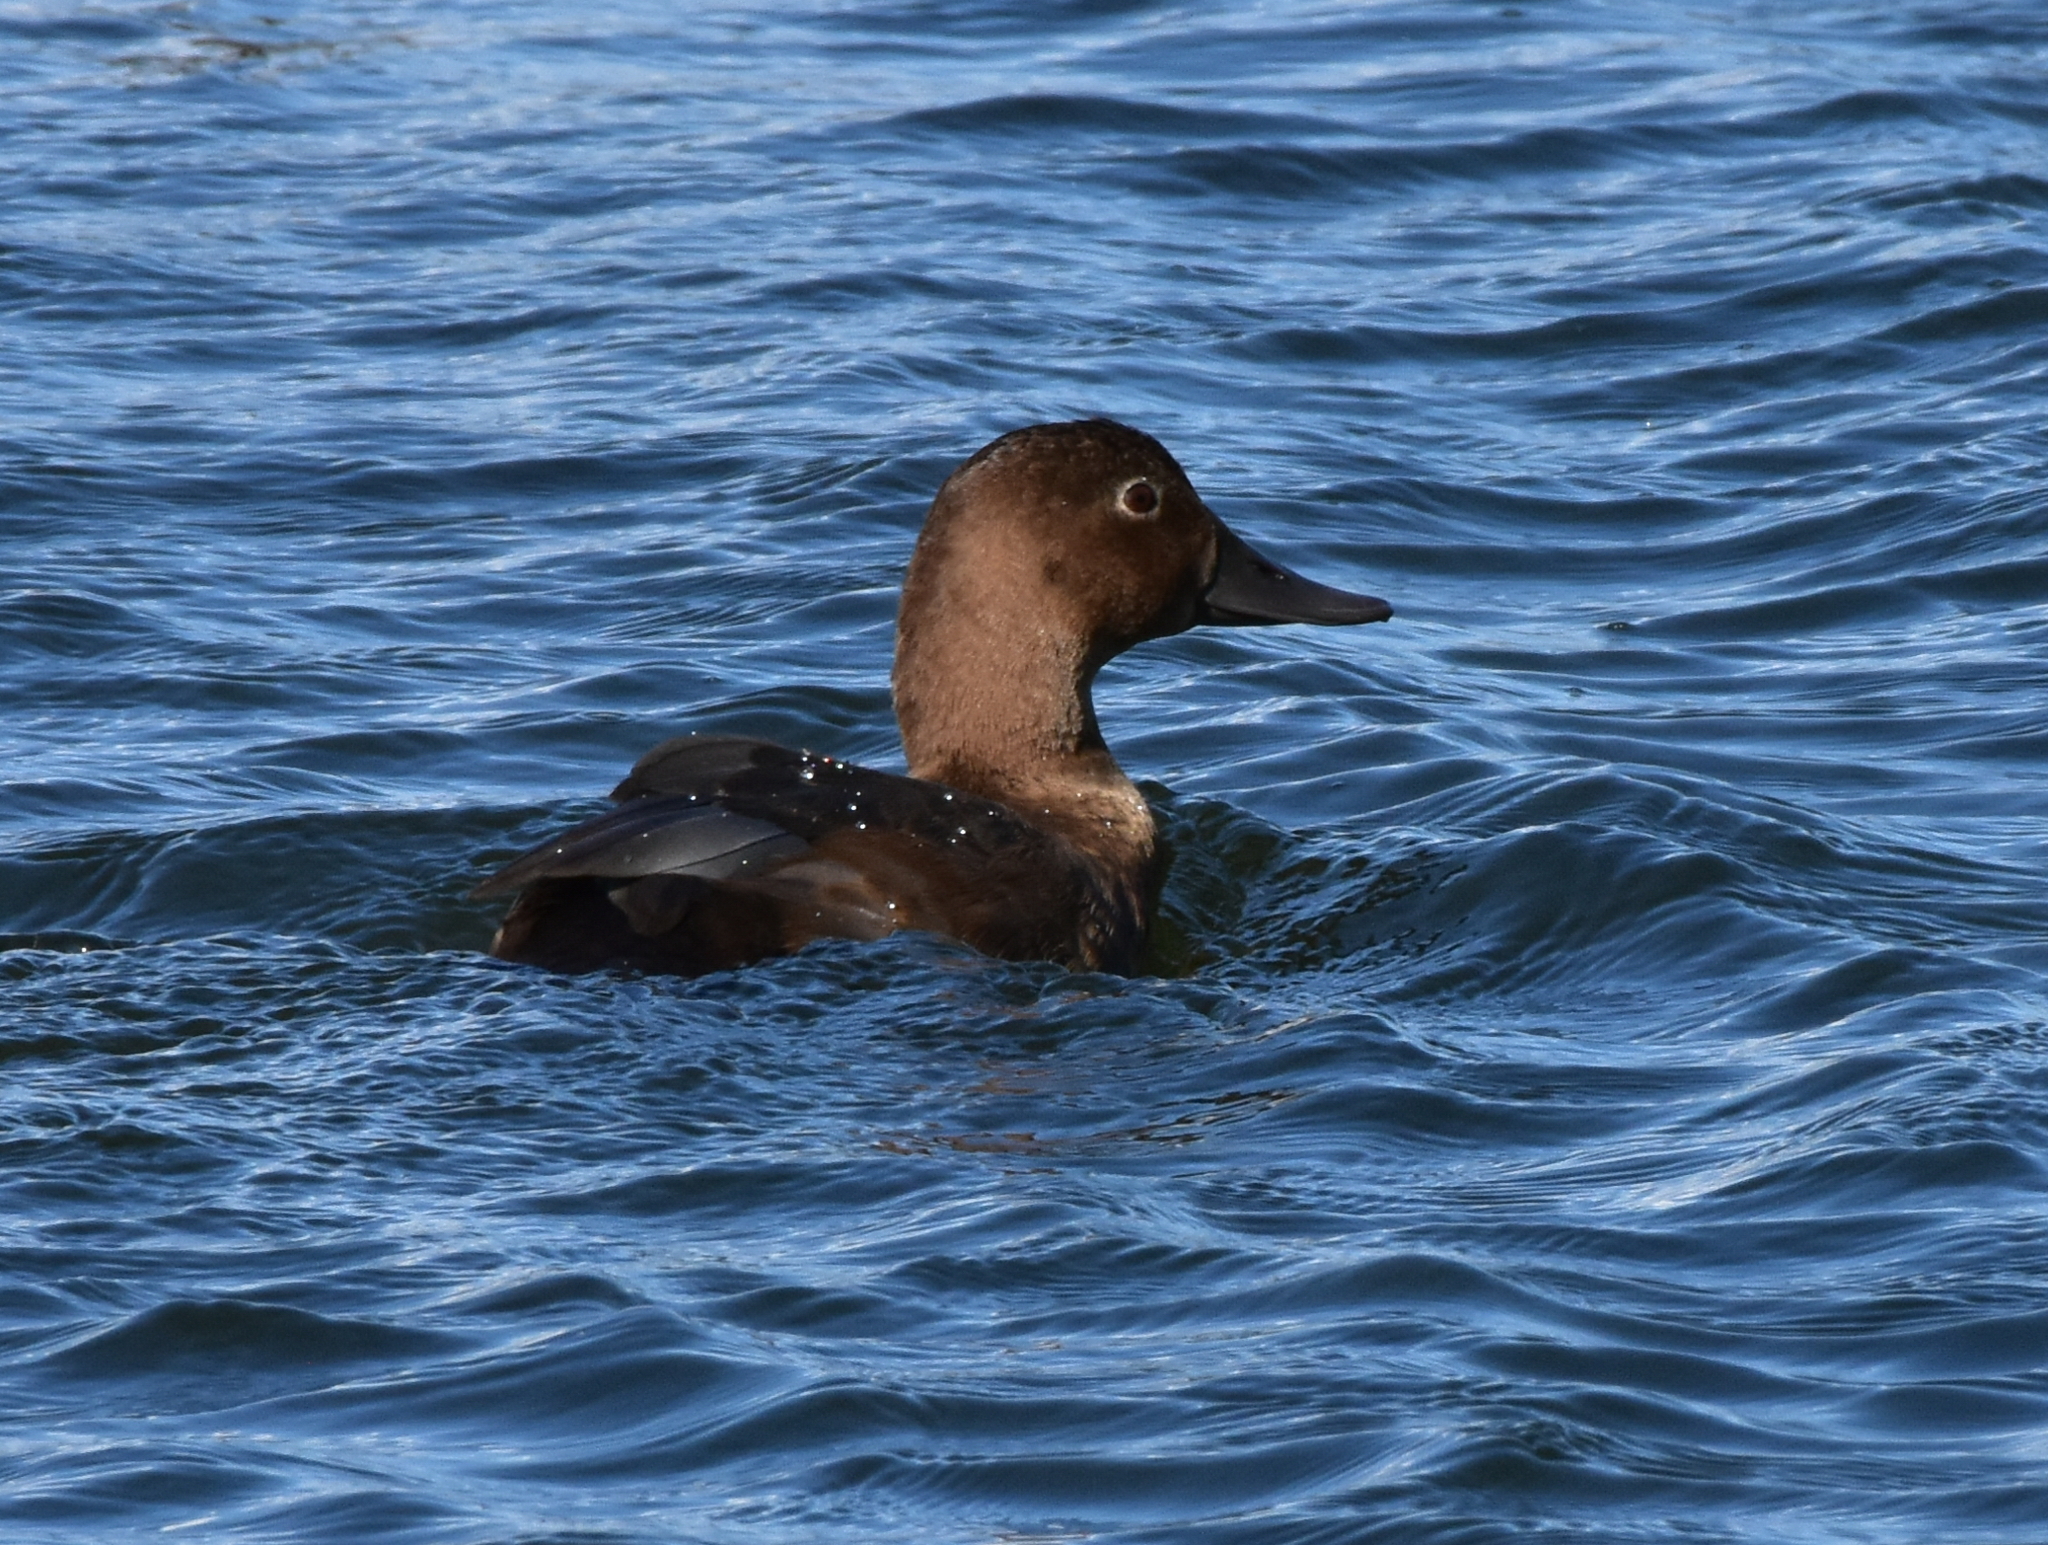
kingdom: Animalia
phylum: Chordata
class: Aves
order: Anseriformes
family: Anatidae
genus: Aythya
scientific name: Aythya ferina
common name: Common pochard
